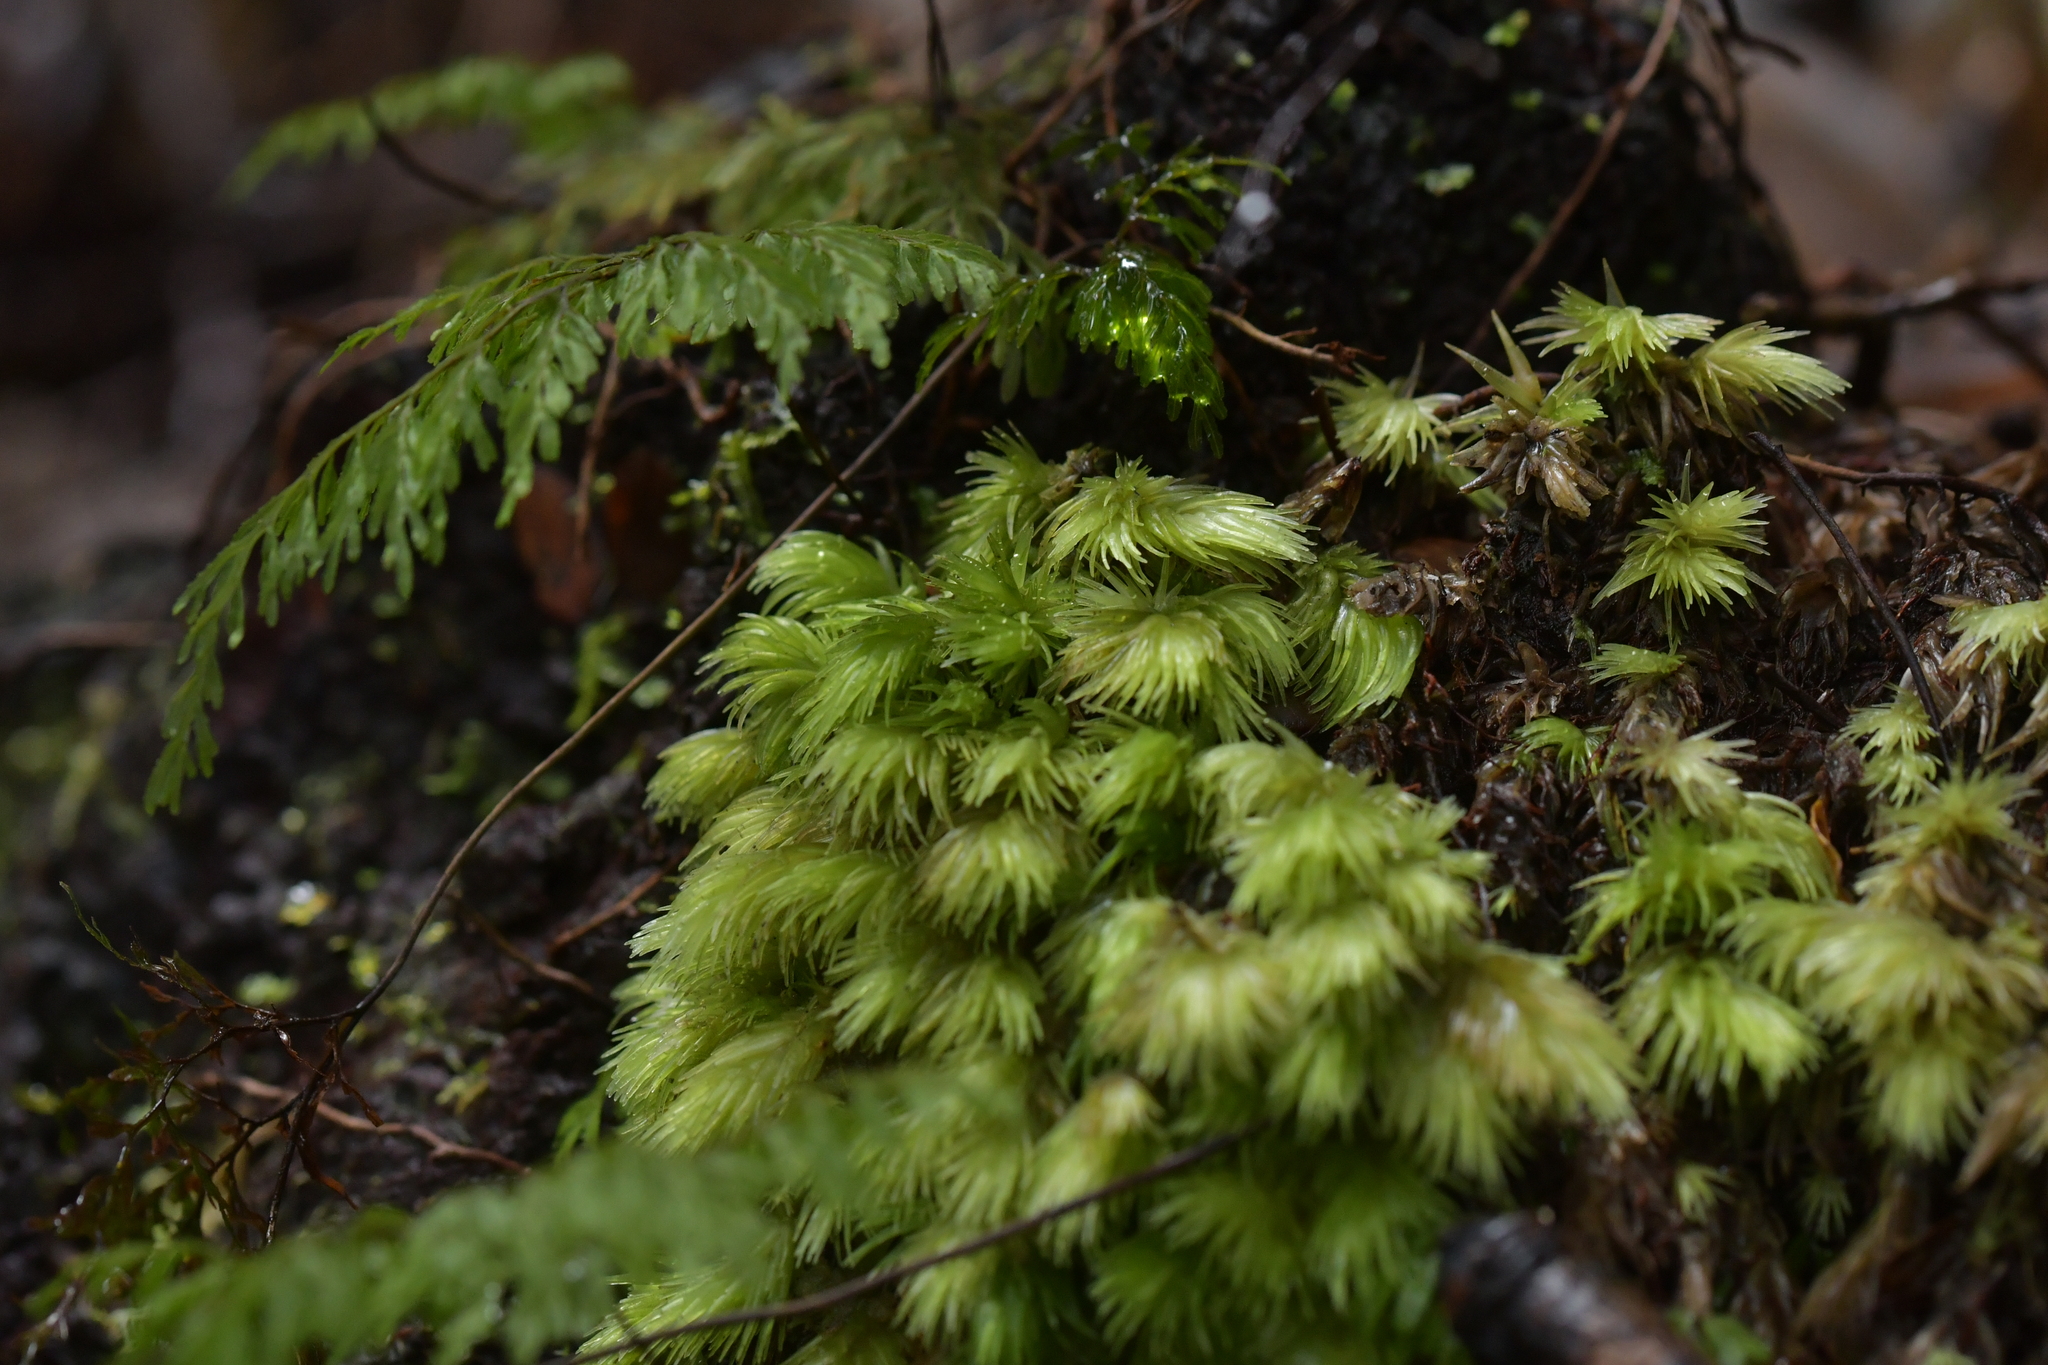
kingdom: Plantae
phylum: Bryophyta
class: Bryopsida
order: Dicranales
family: Leucobryaceae
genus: Leucobryum
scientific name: Leucobryum javense
